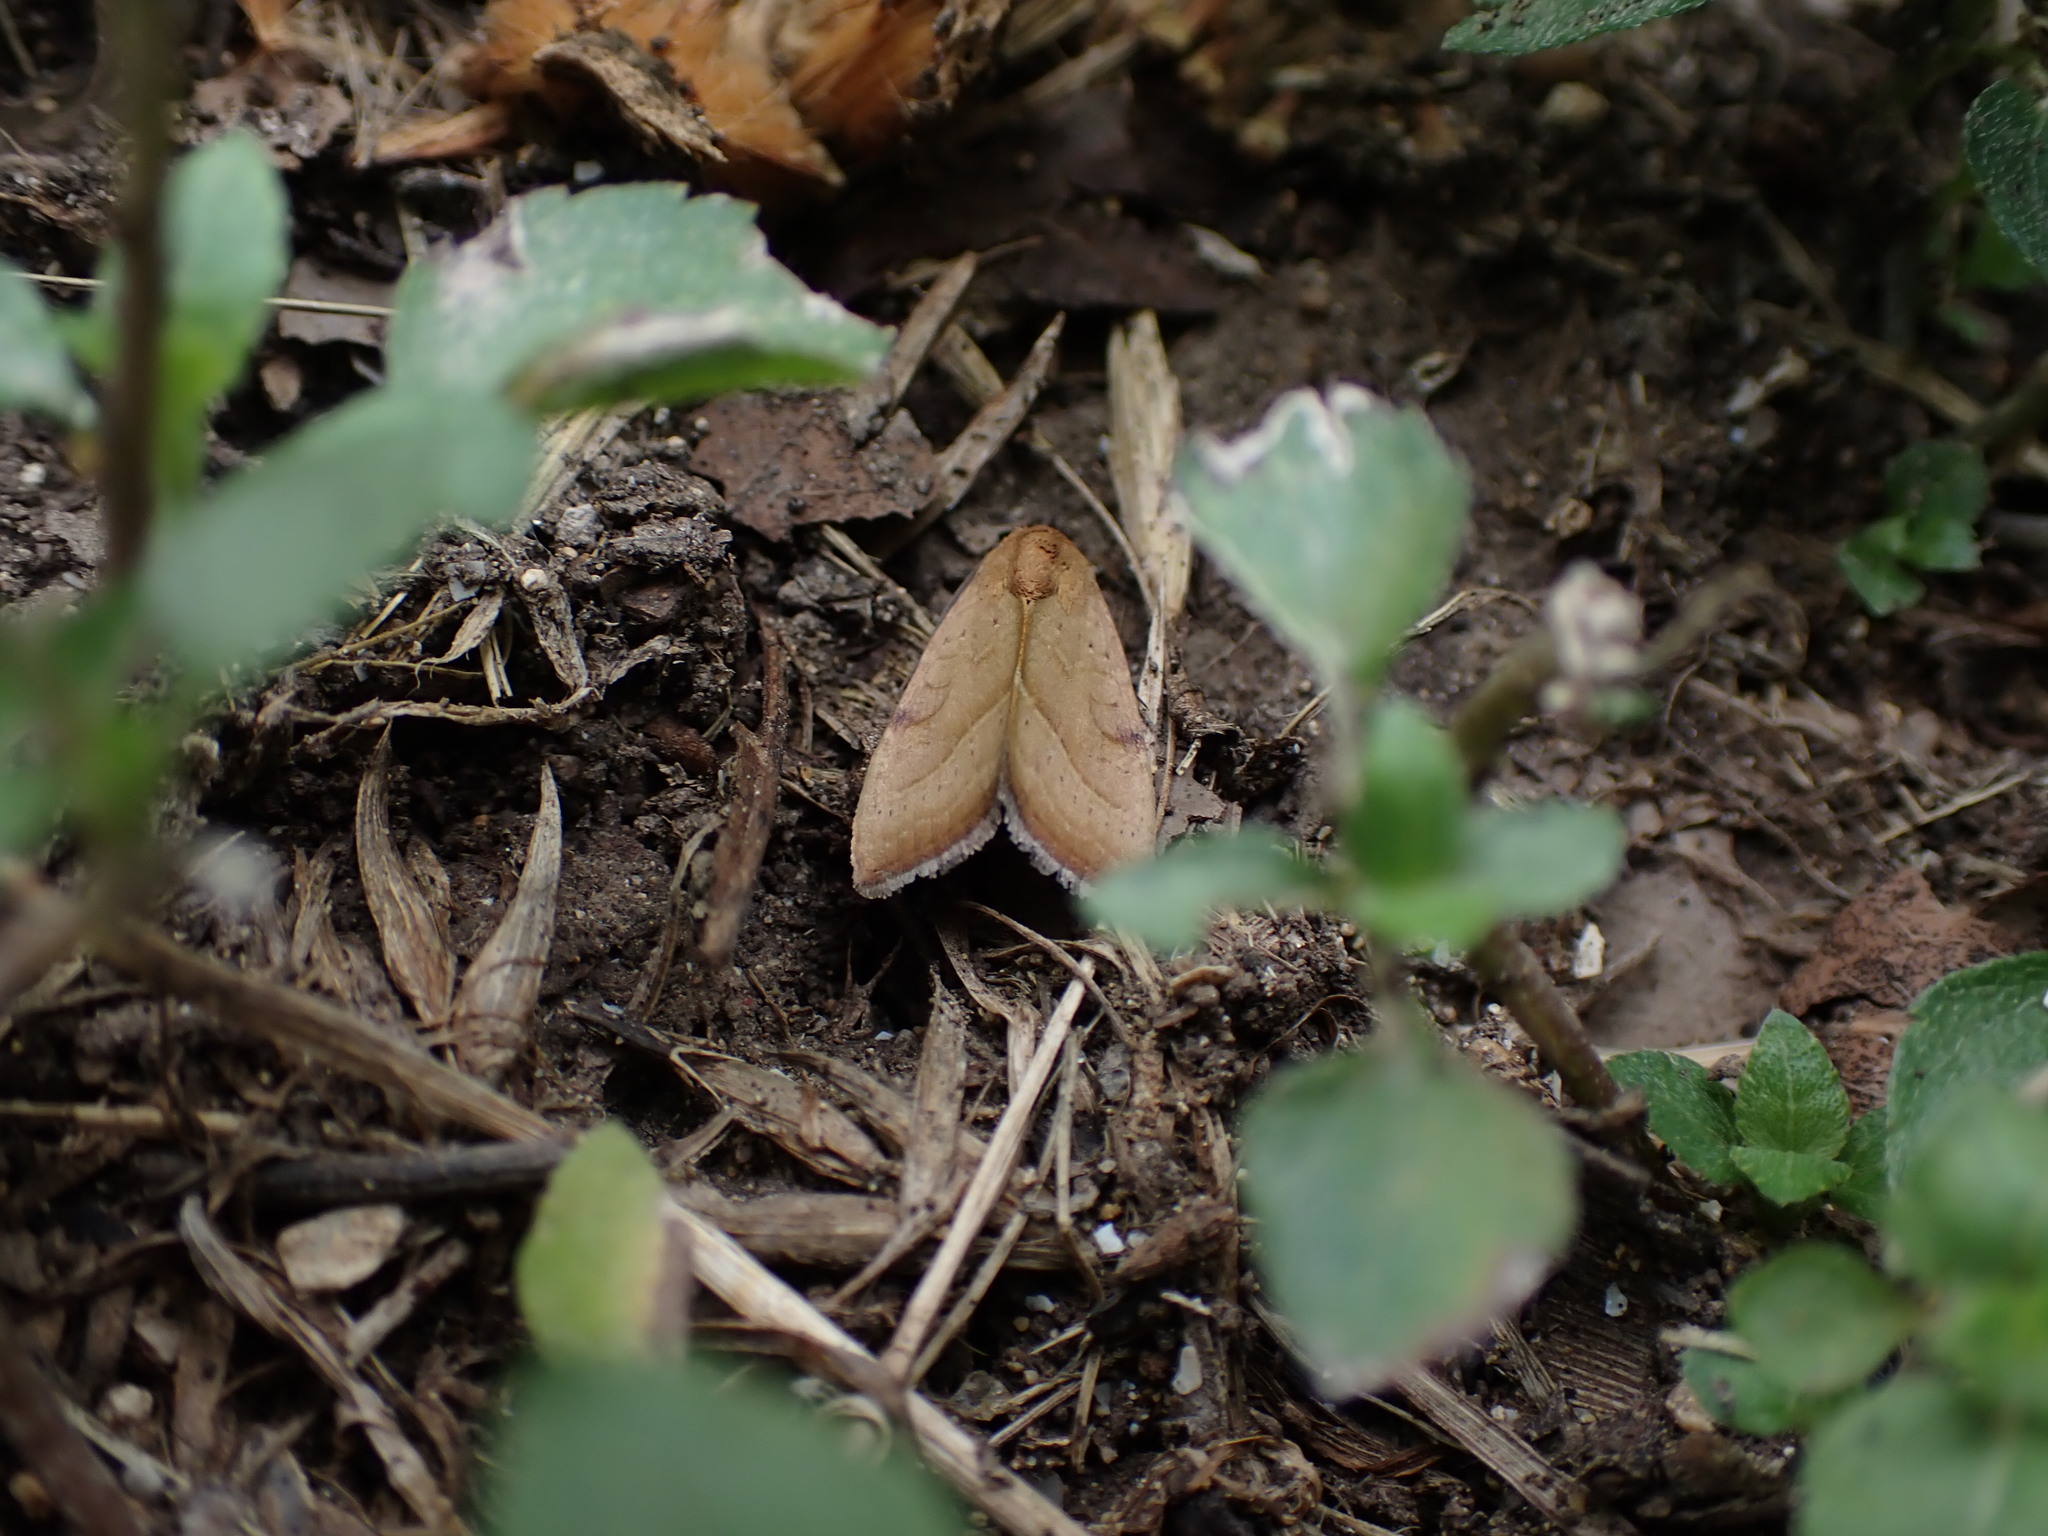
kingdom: Animalia
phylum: Arthropoda
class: Insecta
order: Lepidoptera
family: Noctuidae
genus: Galgula
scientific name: Galgula partita
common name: Wedgeling
